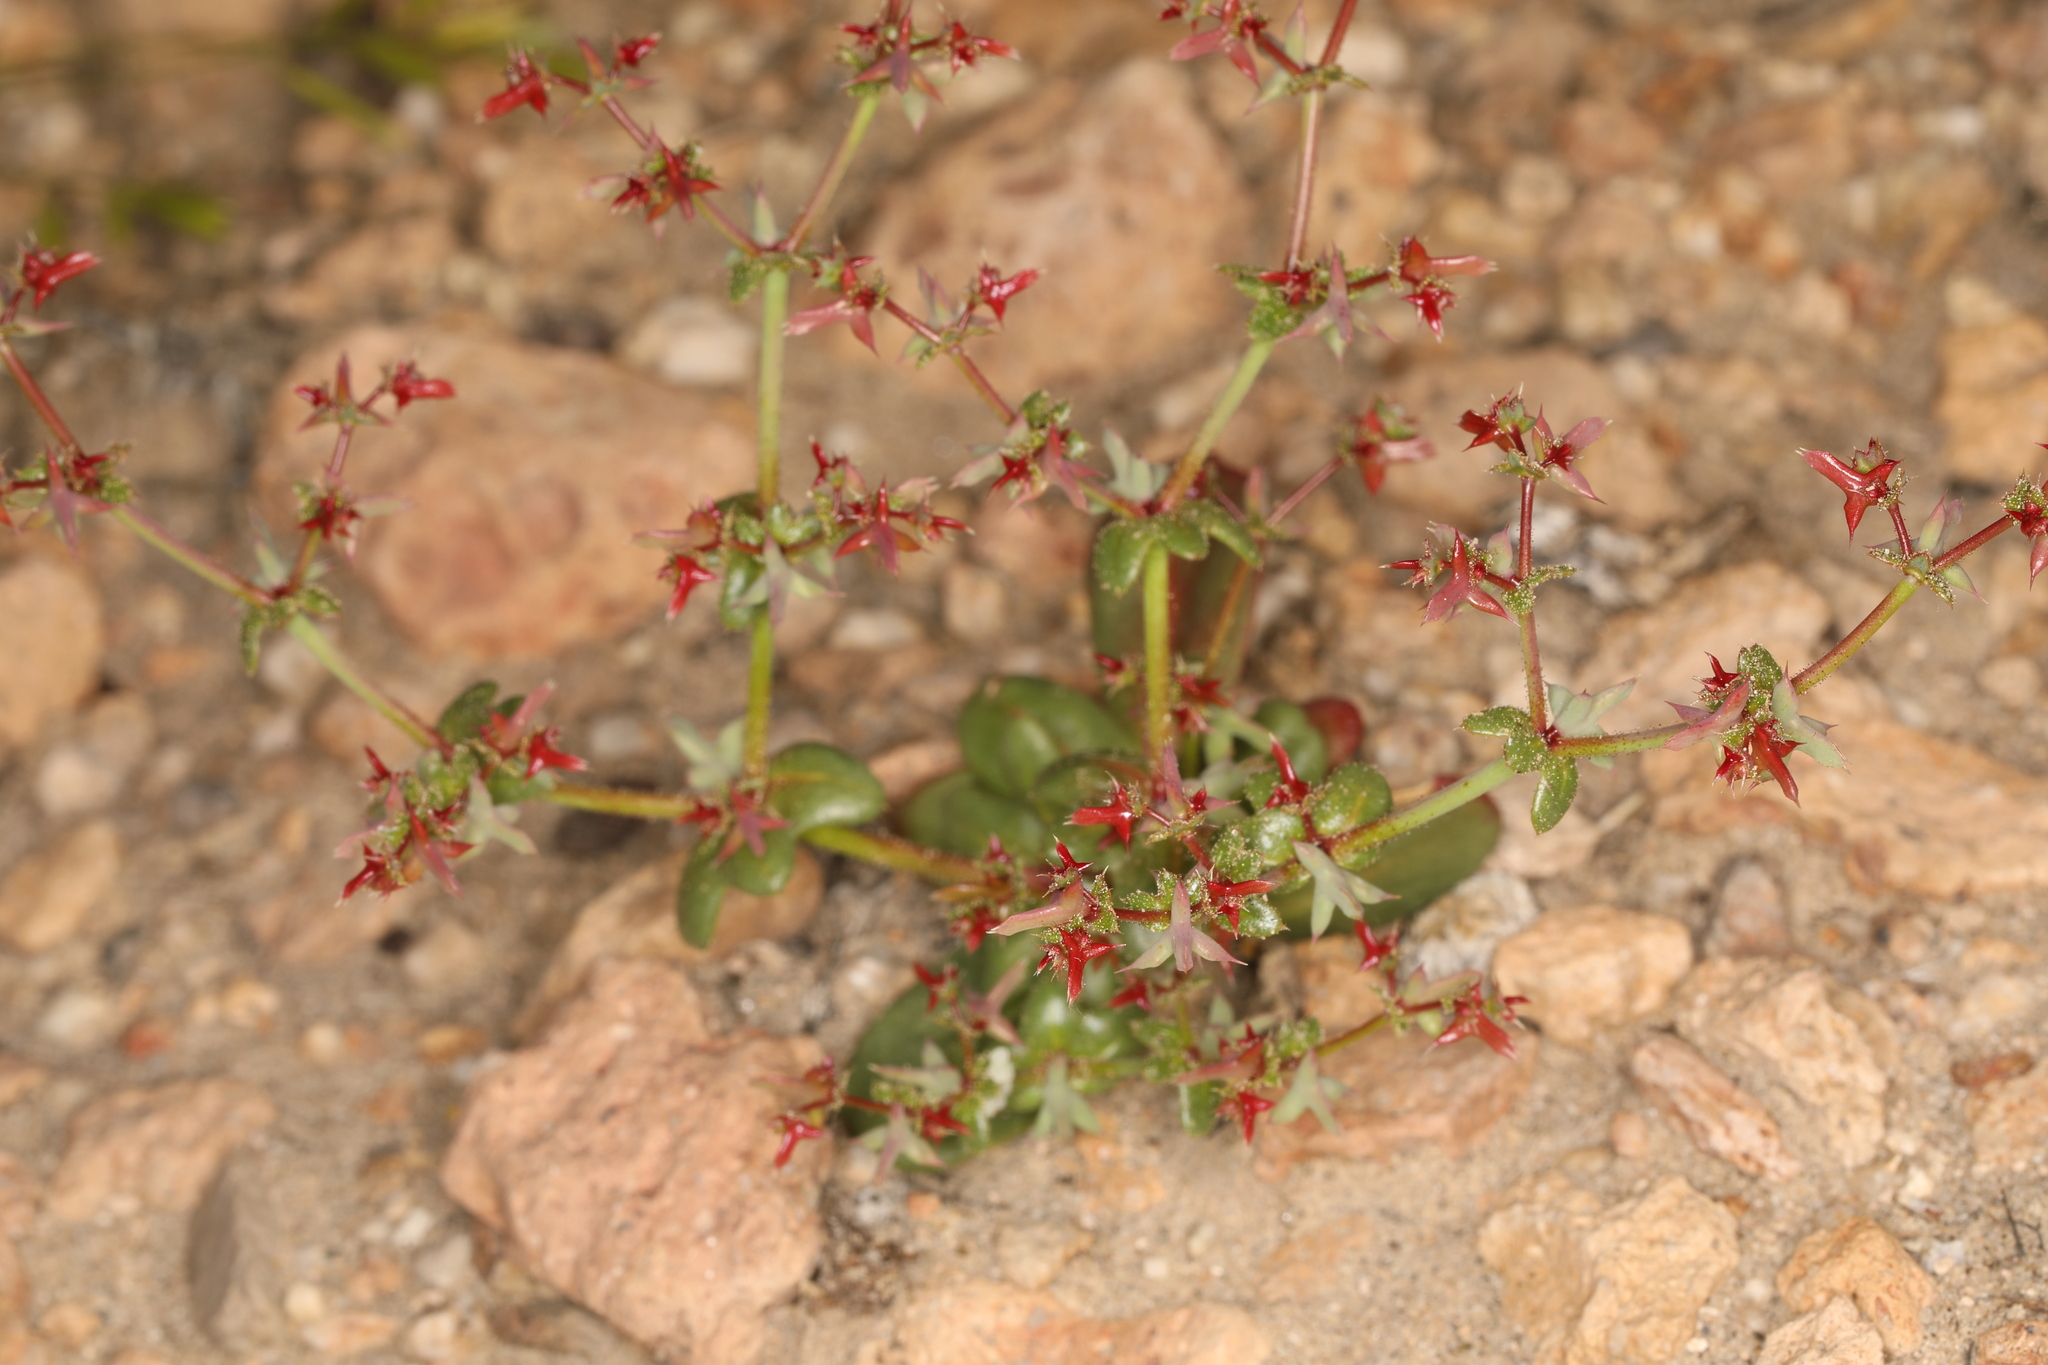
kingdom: Plantae
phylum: Tracheophyta
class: Magnoliopsida
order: Caryophyllales
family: Polygonaceae
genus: Centrostegia
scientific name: Centrostegia thurberi
